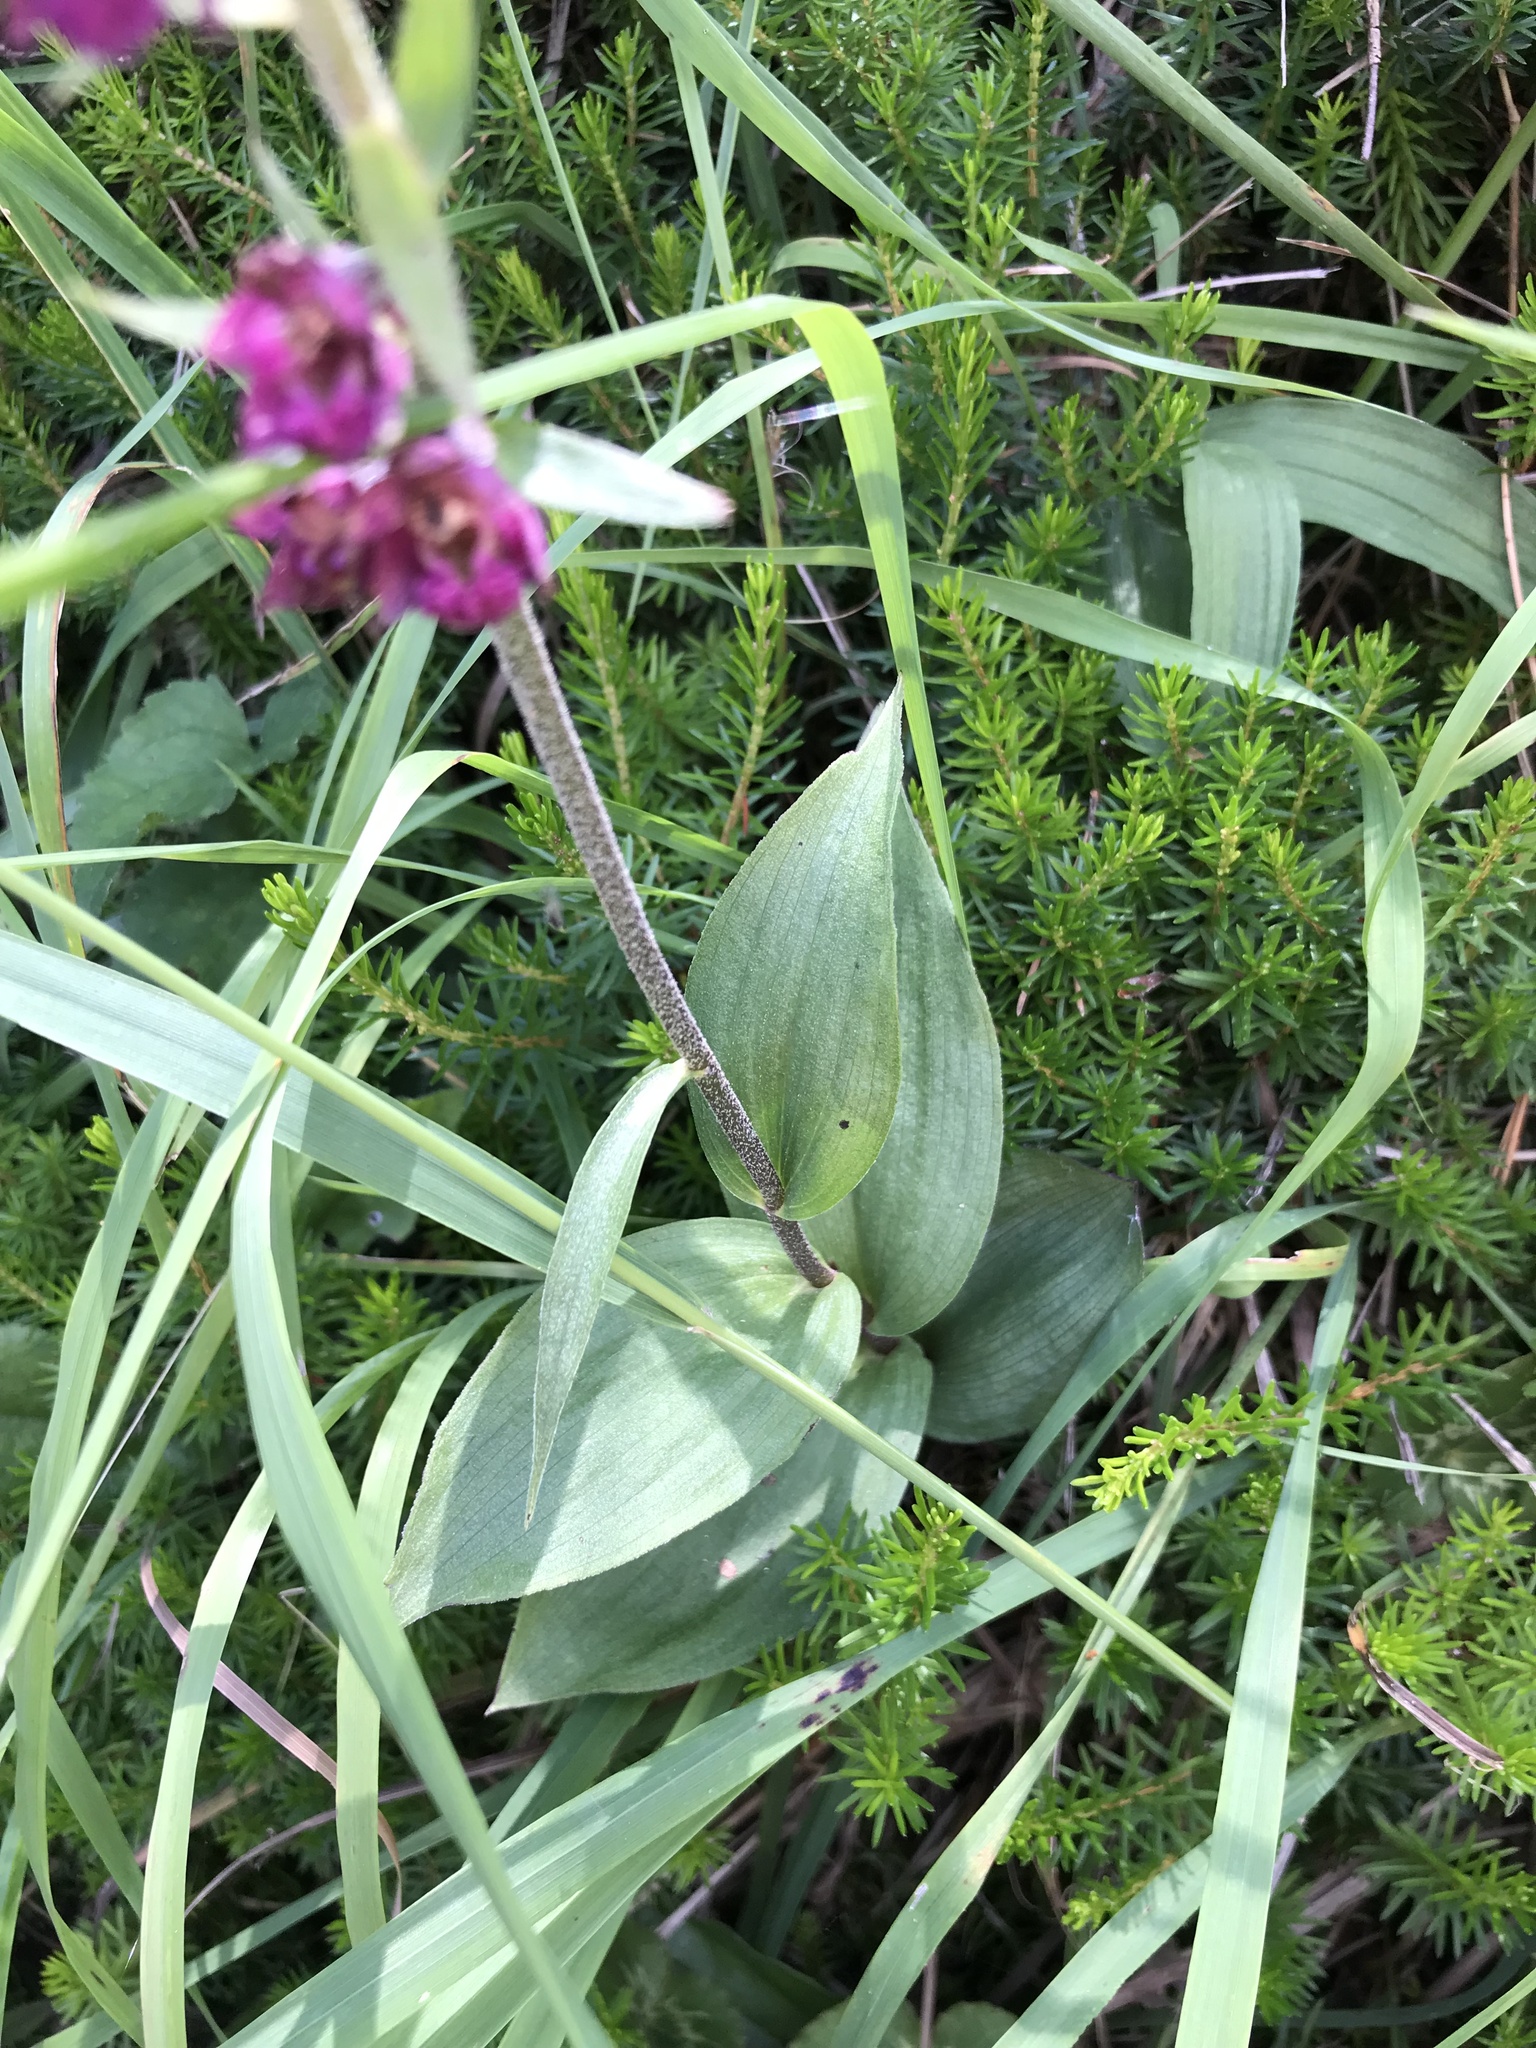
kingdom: Plantae
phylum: Tracheophyta
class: Liliopsida
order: Asparagales
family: Orchidaceae
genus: Epipactis
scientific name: Epipactis atrorubens
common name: Dark-red helleborine
